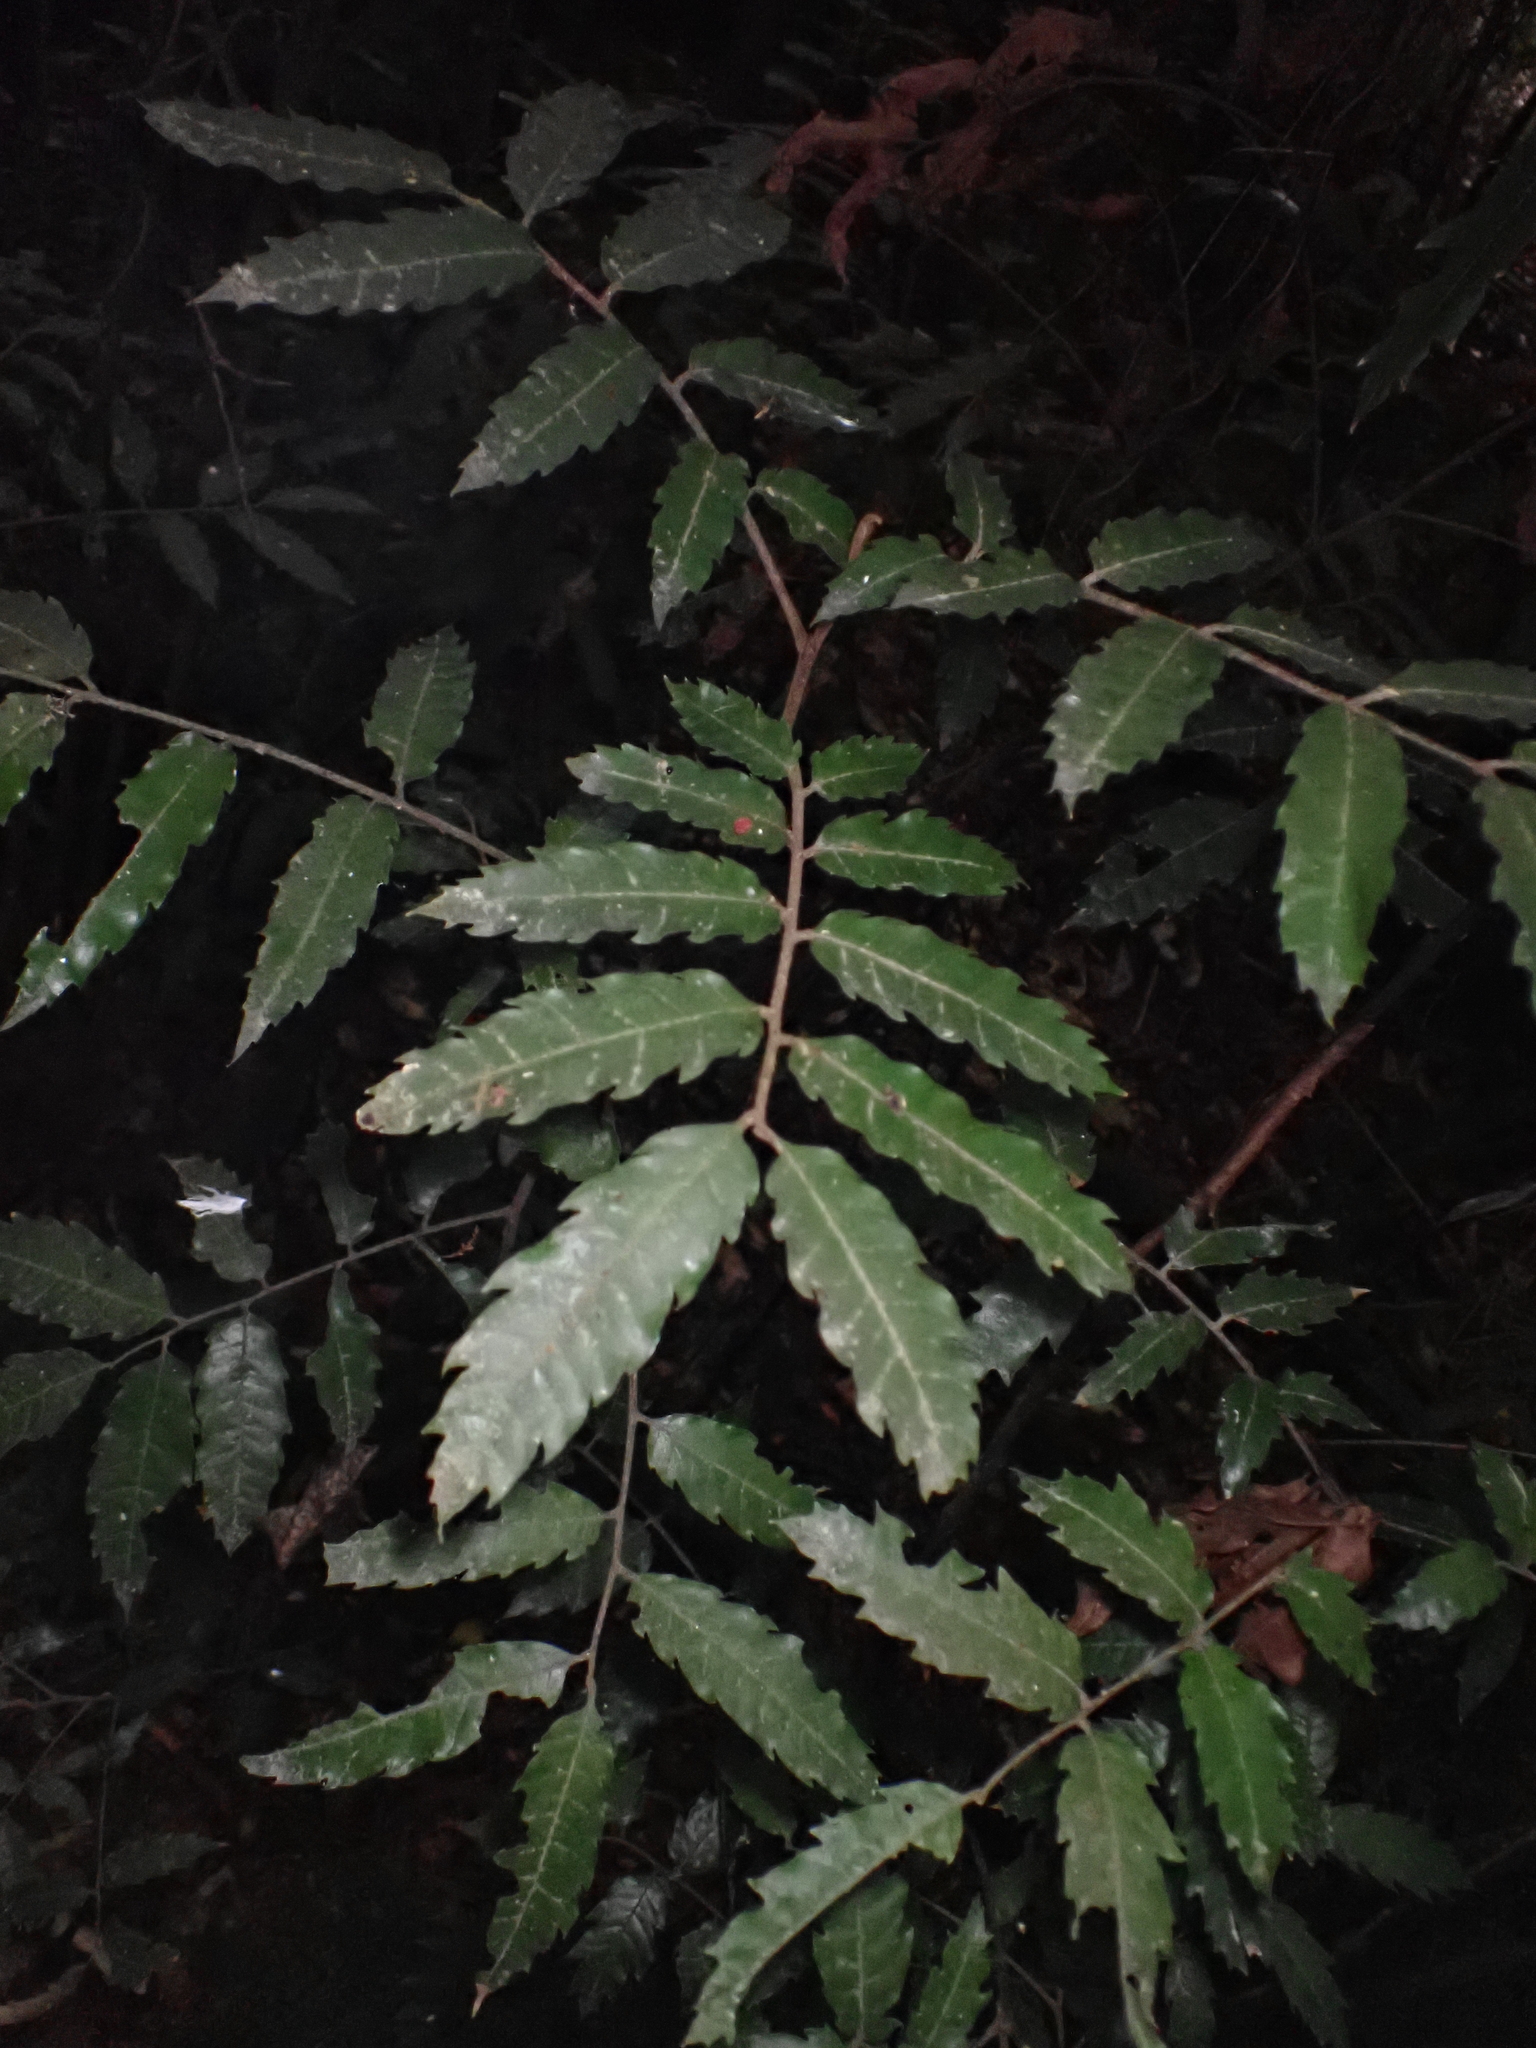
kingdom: Plantae
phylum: Tracheophyta
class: Magnoliopsida
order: Sapindales
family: Sapindaceae
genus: Alectryon
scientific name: Alectryon excelsus
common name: Three kings titoki
